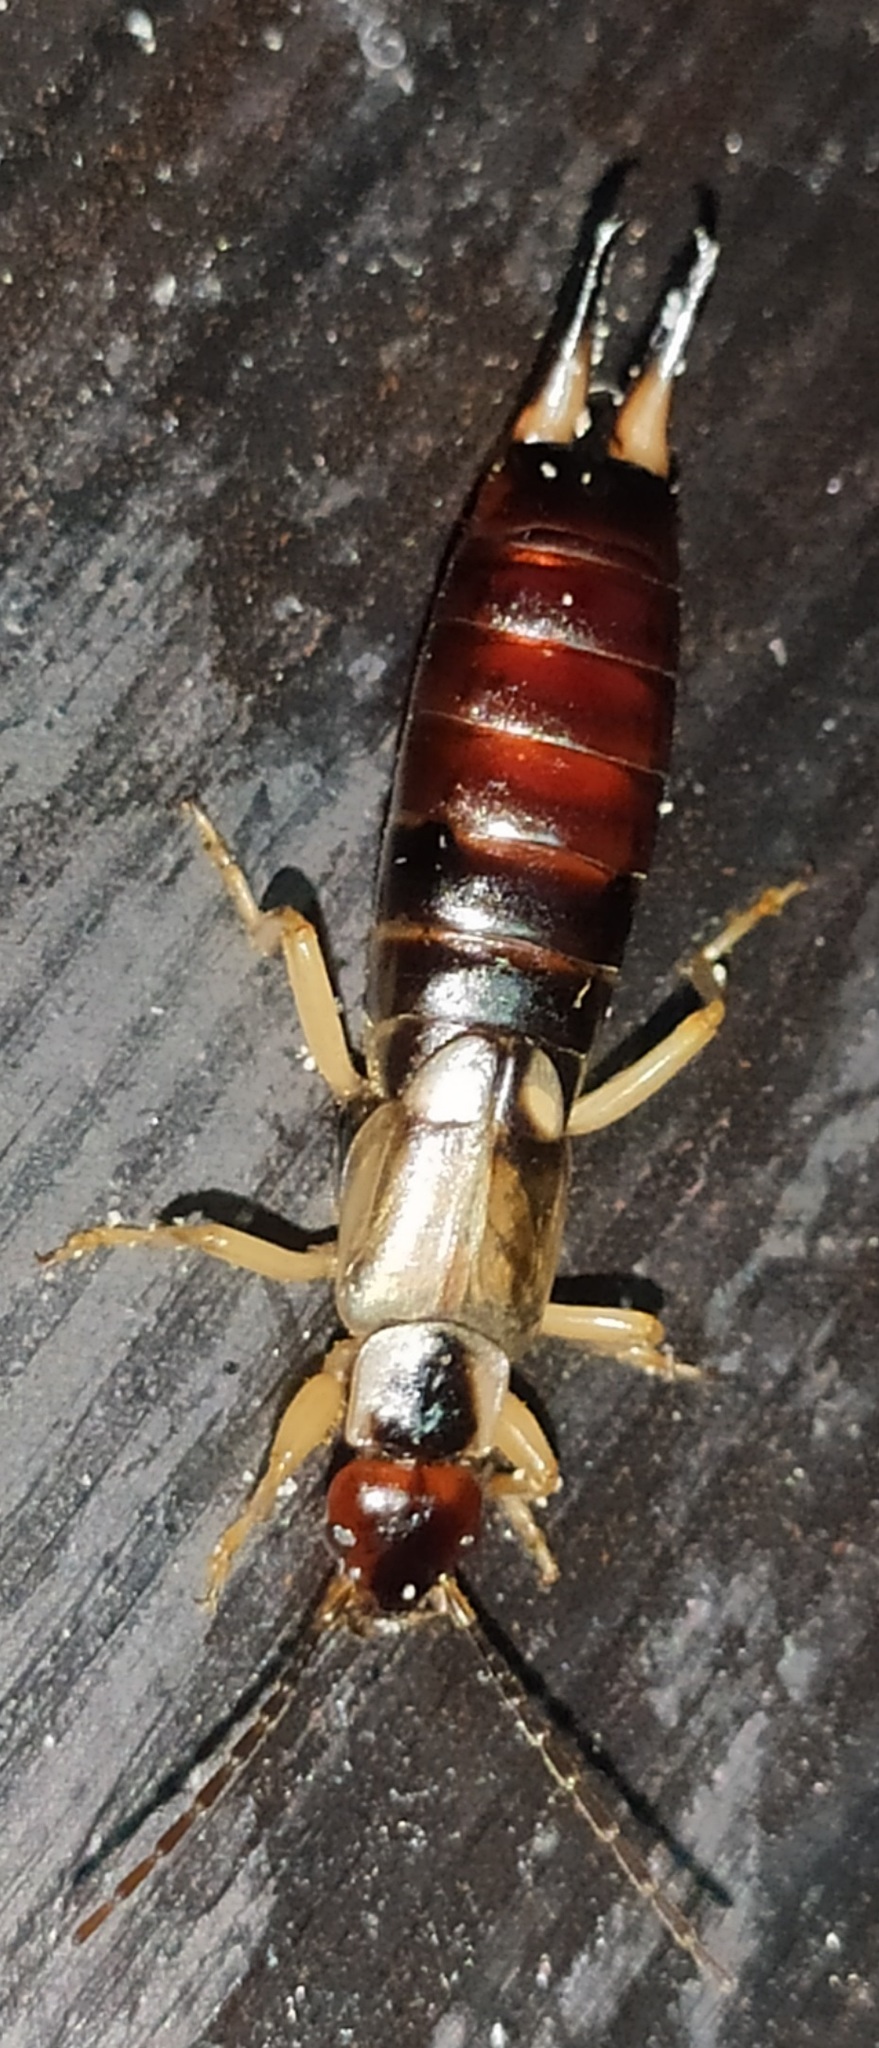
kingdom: Animalia
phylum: Arthropoda
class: Insecta
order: Dermaptera
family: Forficulidae
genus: Forficula
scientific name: Forficula
